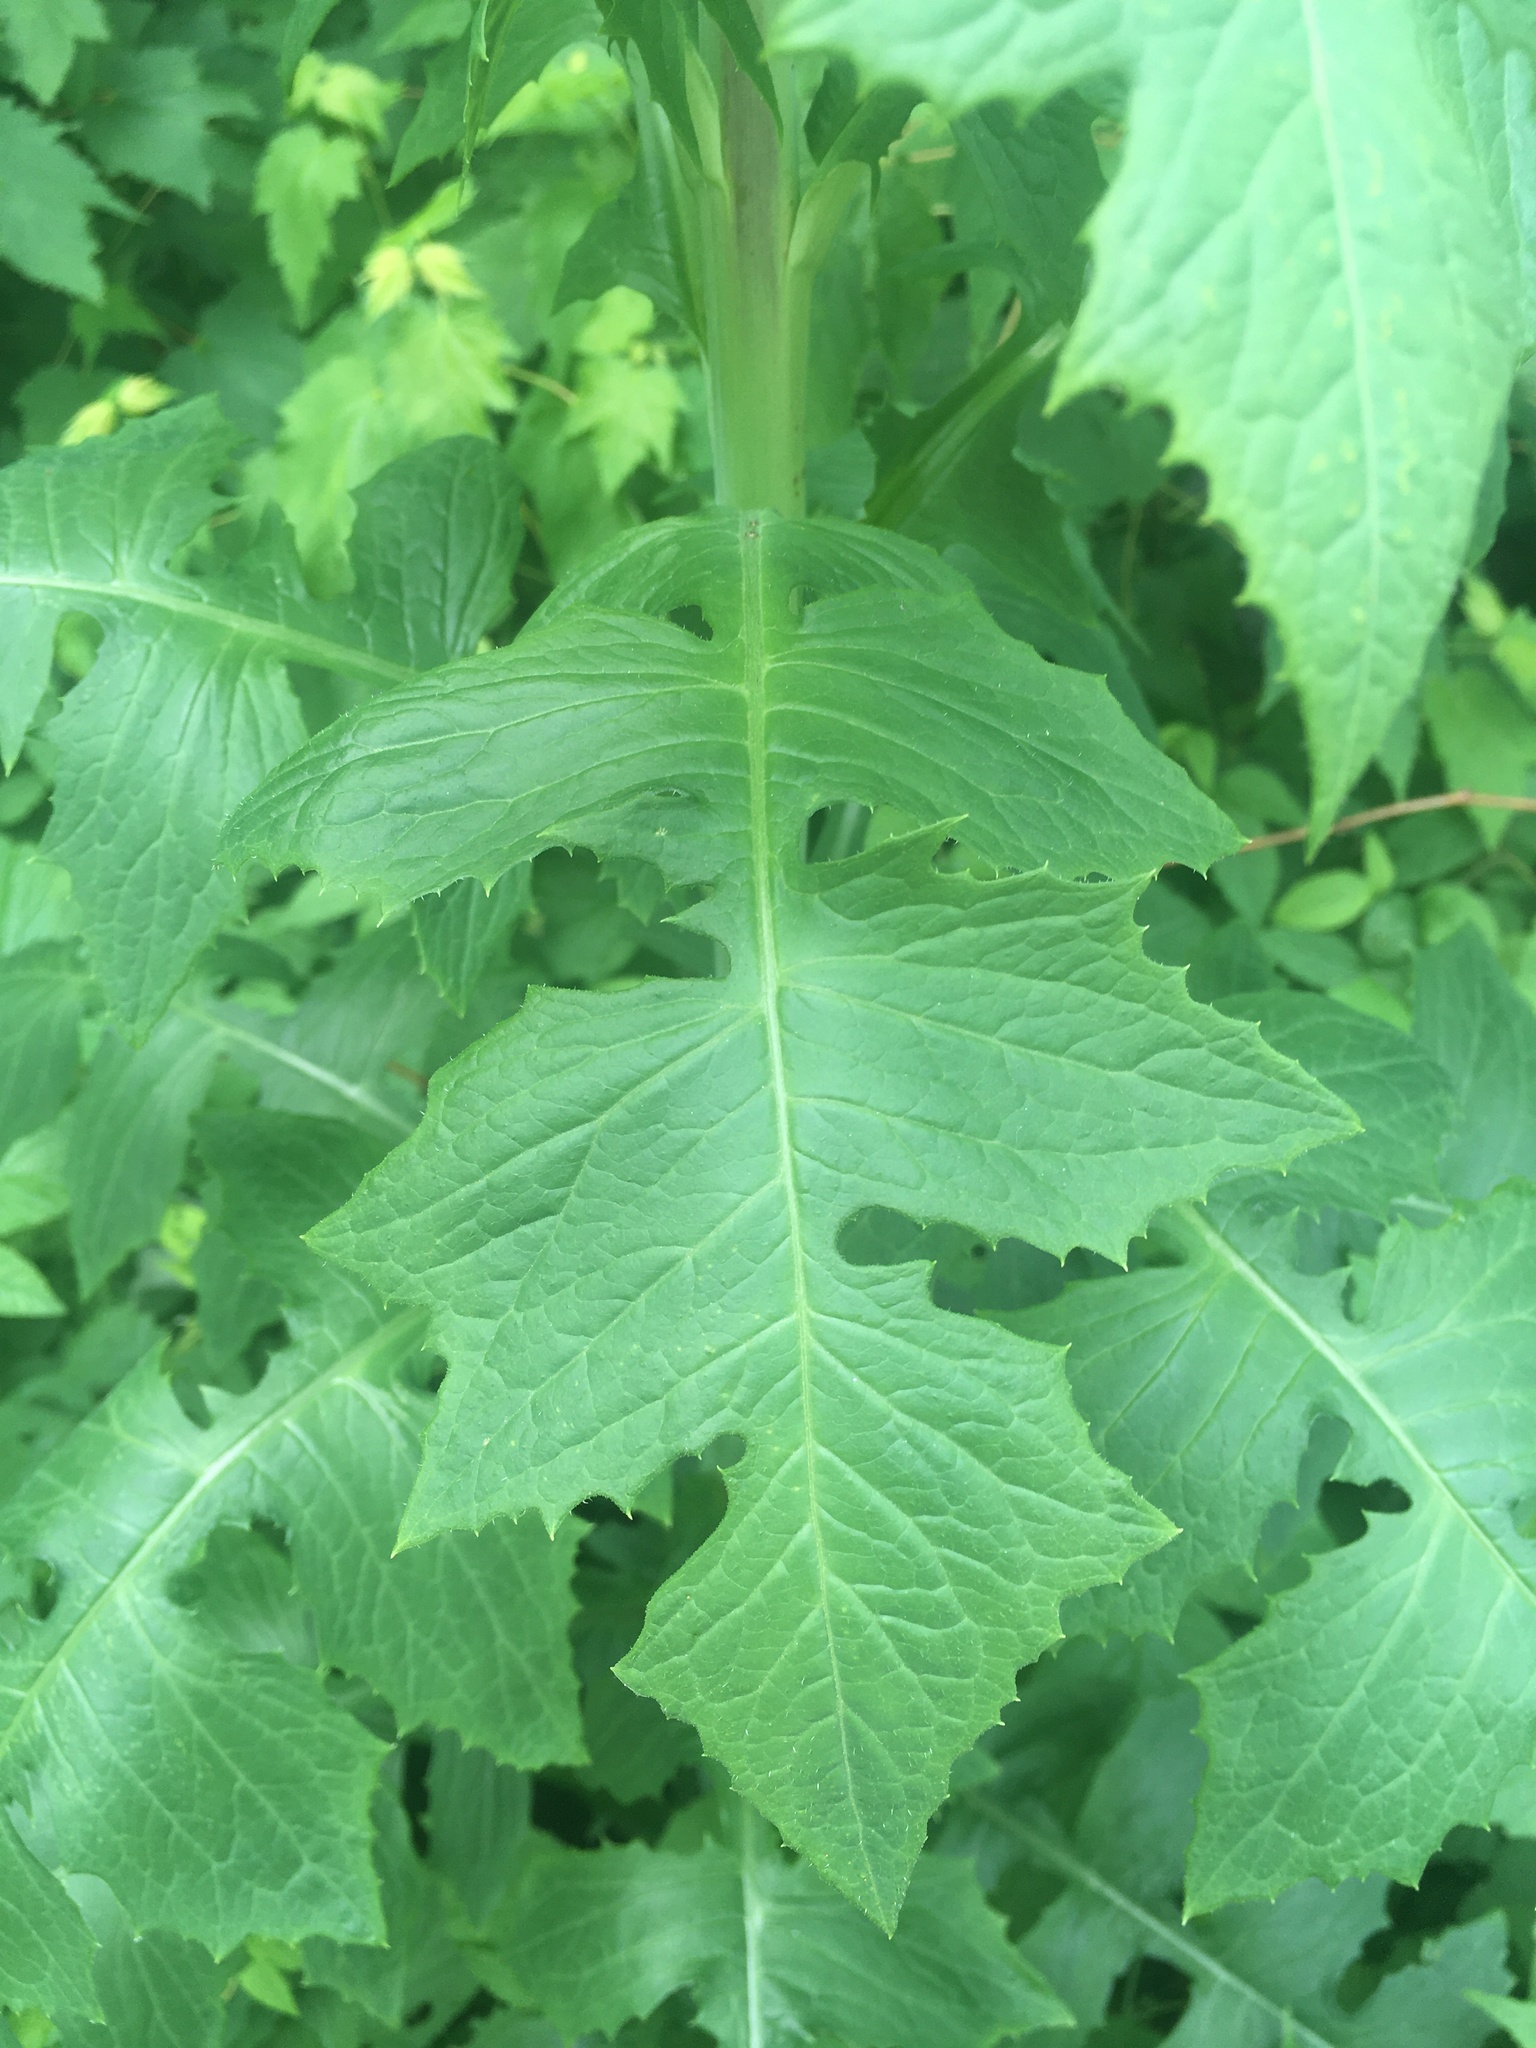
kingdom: Plantae
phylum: Tracheophyta
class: Magnoliopsida
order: Asterales
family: Asteraceae
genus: Lactuca
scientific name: Lactuca biennis
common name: Blue wood lettuce
